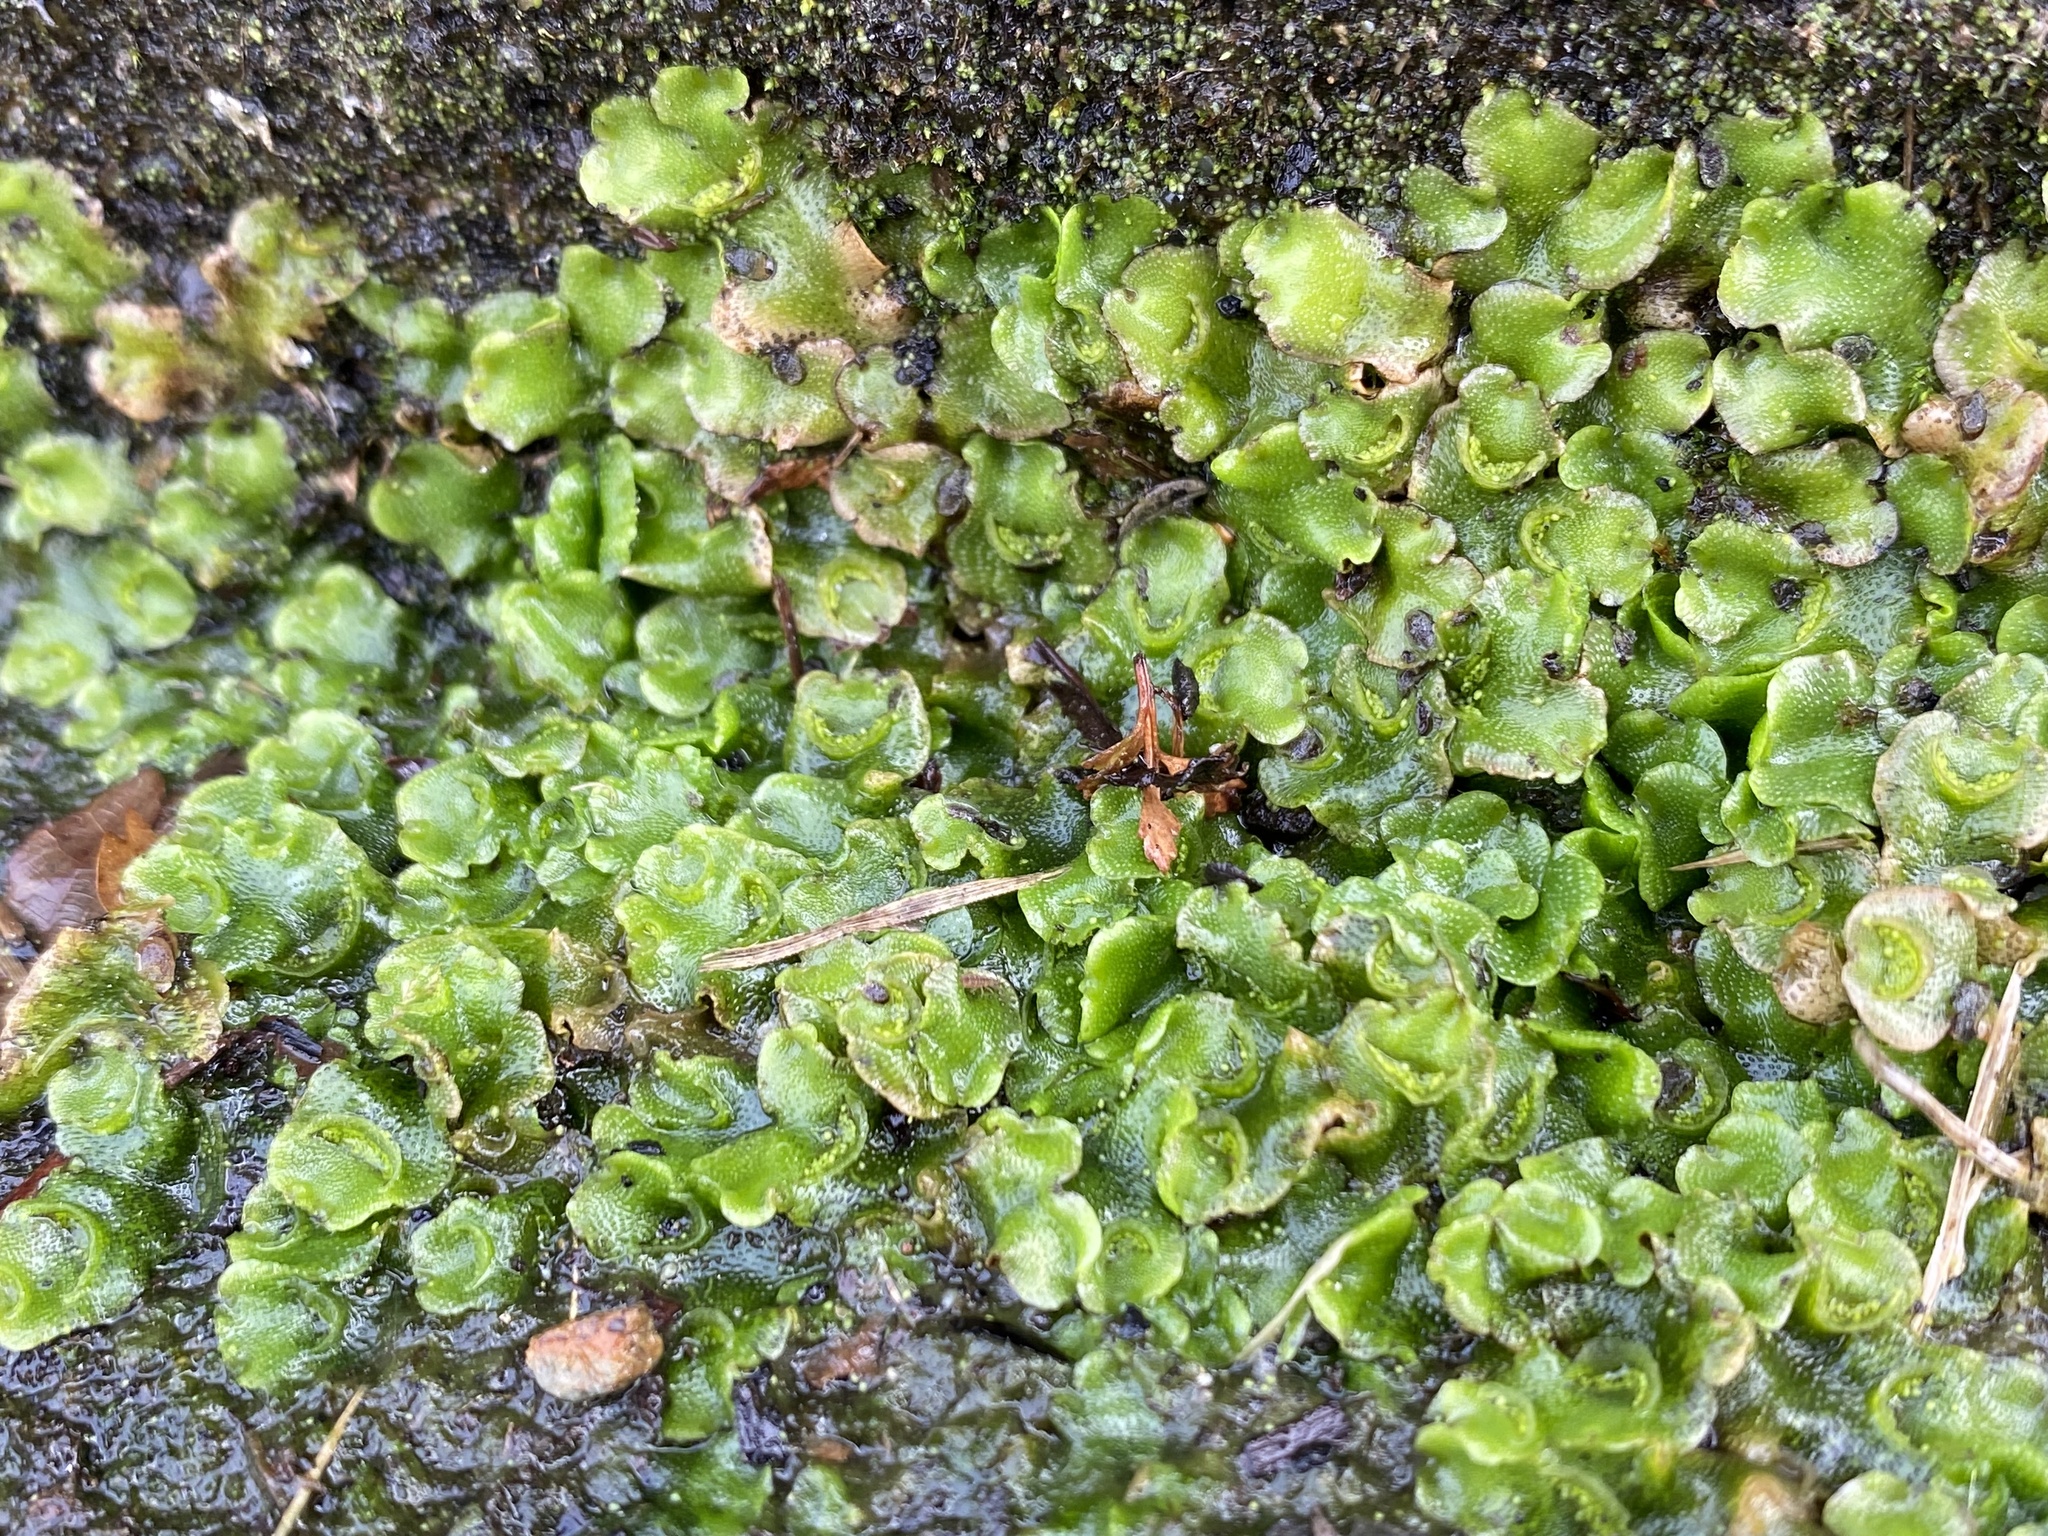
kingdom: Plantae
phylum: Marchantiophyta
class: Marchantiopsida
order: Lunulariales
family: Lunulariaceae
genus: Lunularia
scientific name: Lunularia cruciata
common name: Crescent-cup liverwort
